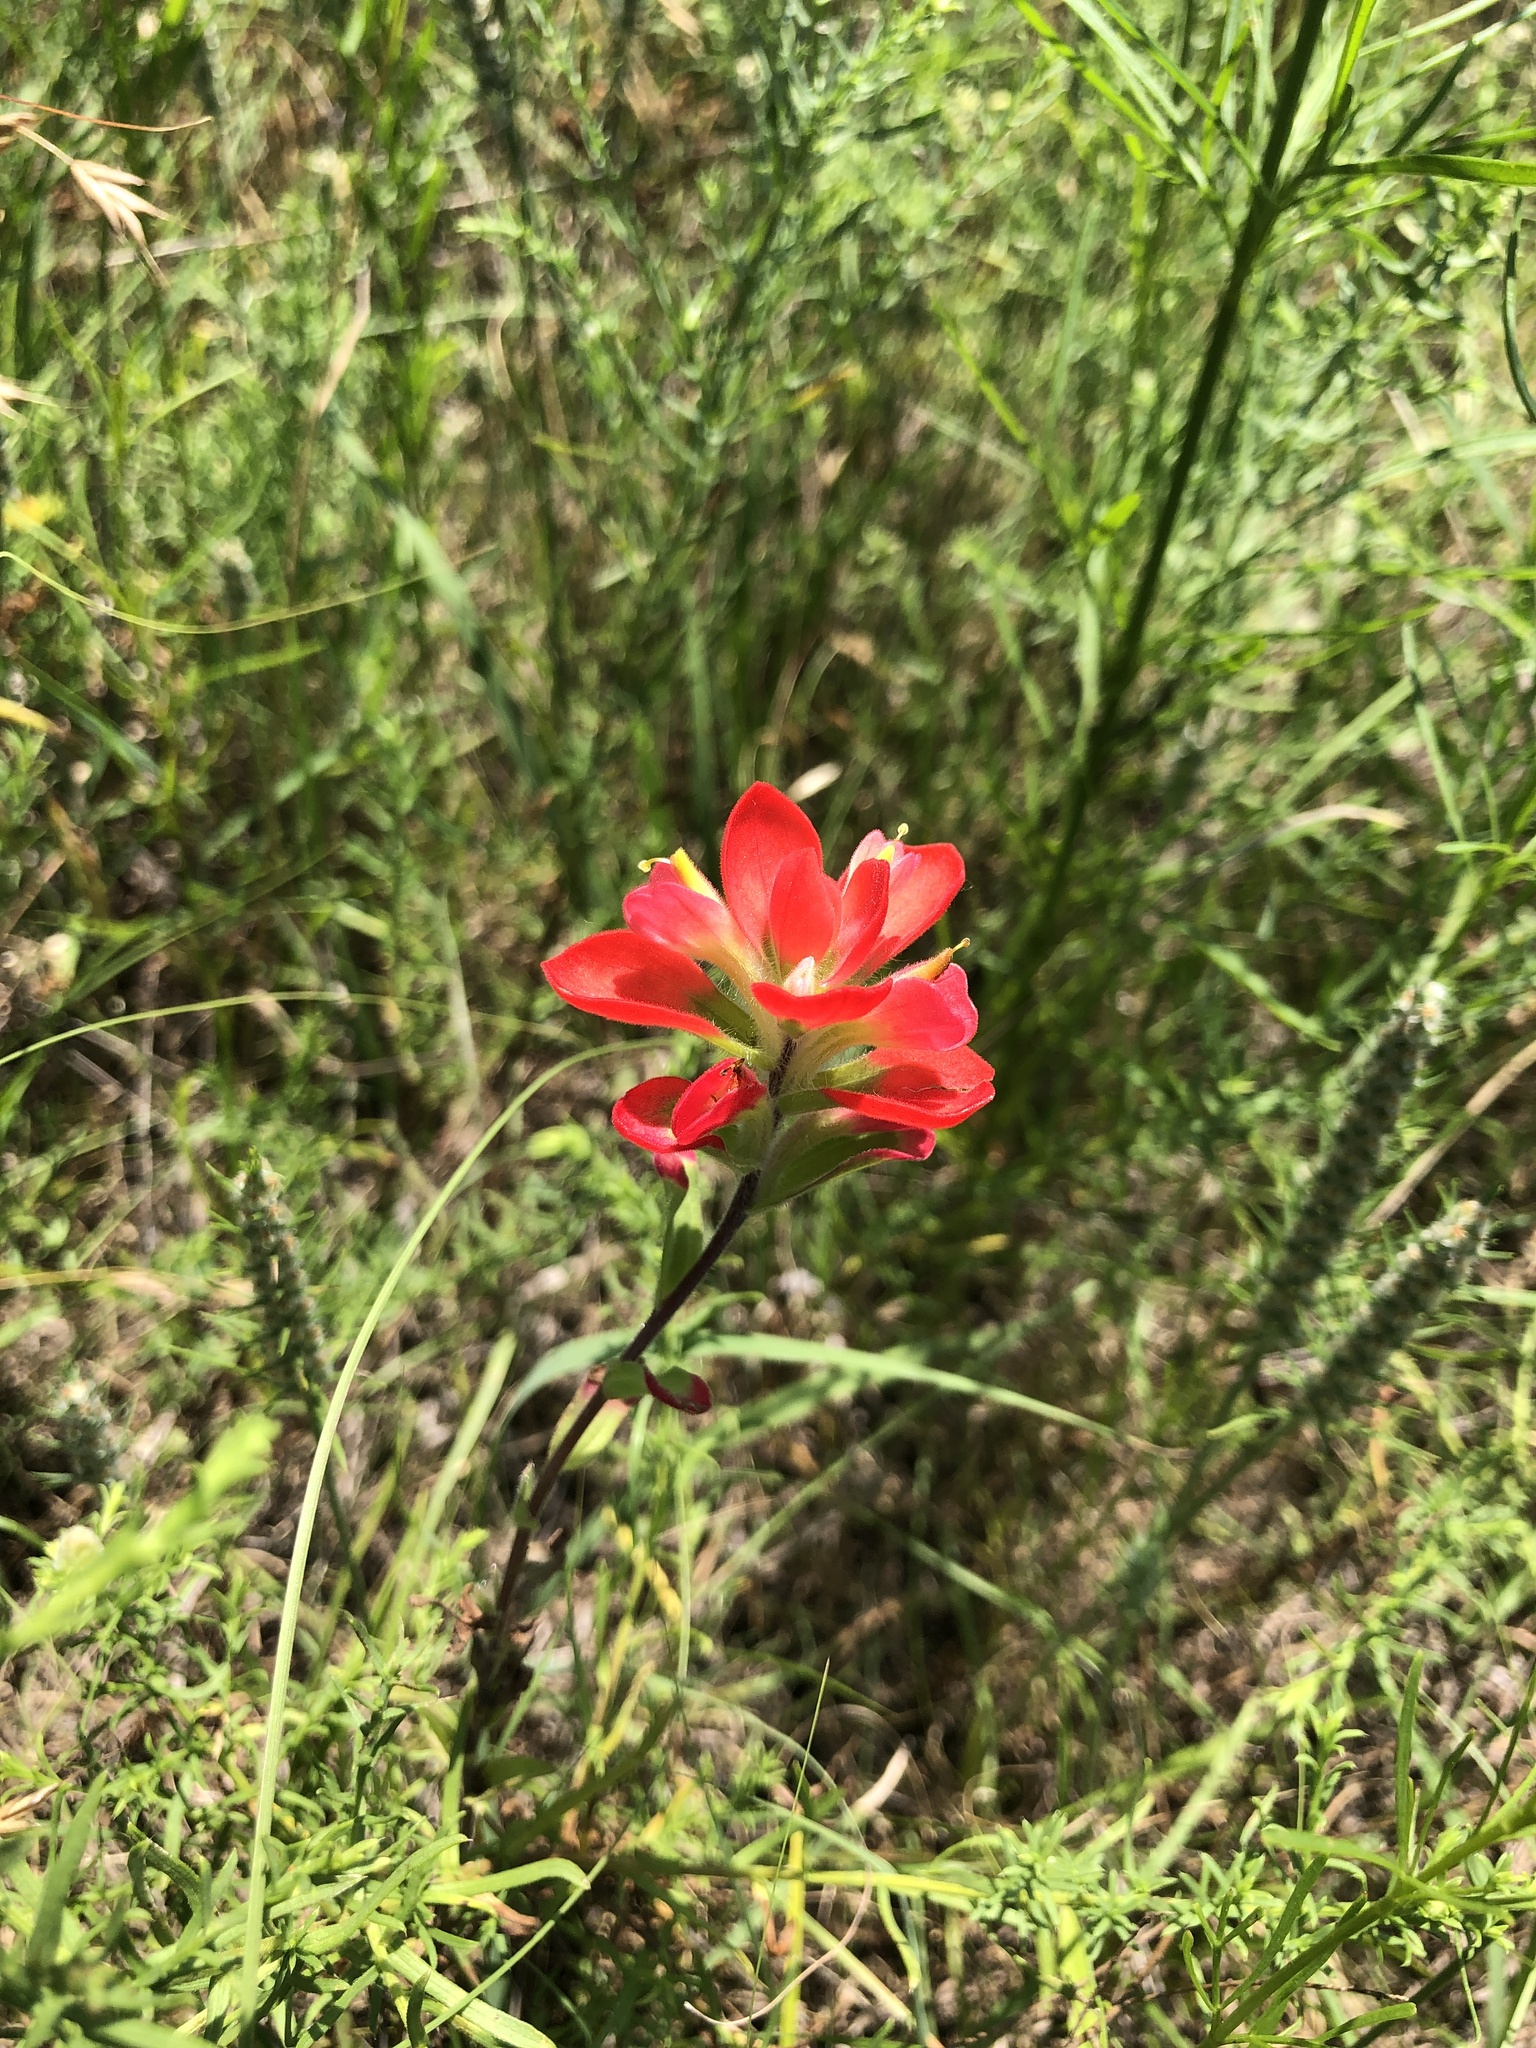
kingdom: Plantae
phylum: Tracheophyta
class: Magnoliopsida
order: Lamiales
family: Orobanchaceae
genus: Castilleja
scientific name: Castilleja indivisa
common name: Texas paintbrush
